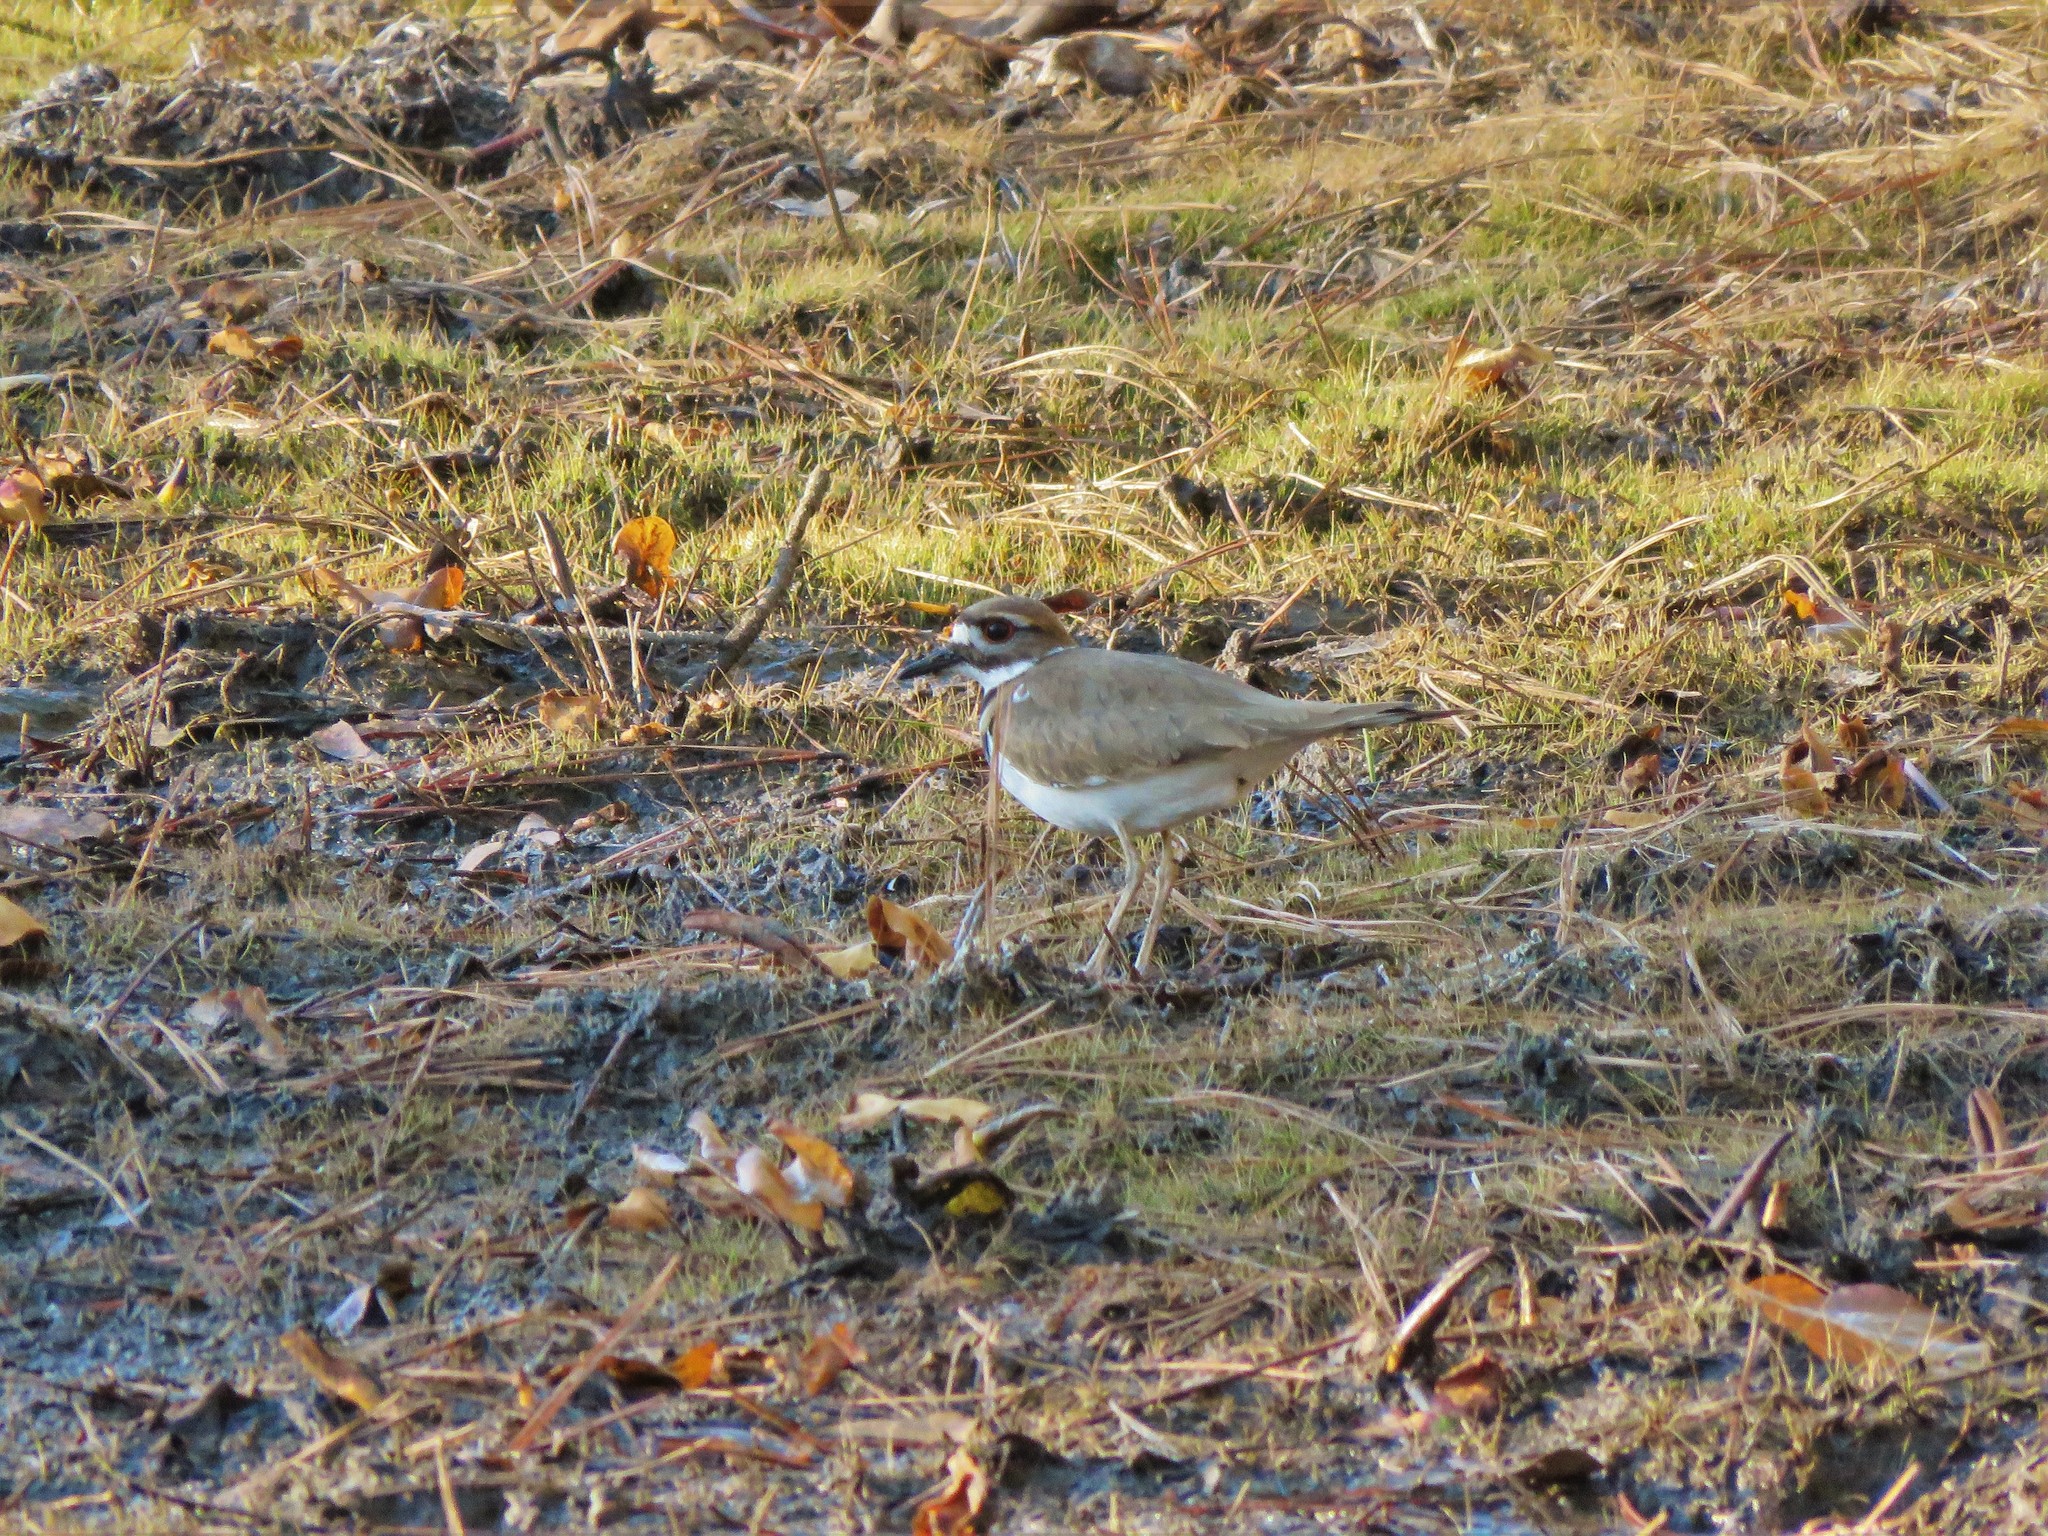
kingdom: Animalia
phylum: Chordata
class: Aves
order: Charadriiformes
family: Charadriidae
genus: Charadrius
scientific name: Charadrius vociferus
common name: Killdeer
